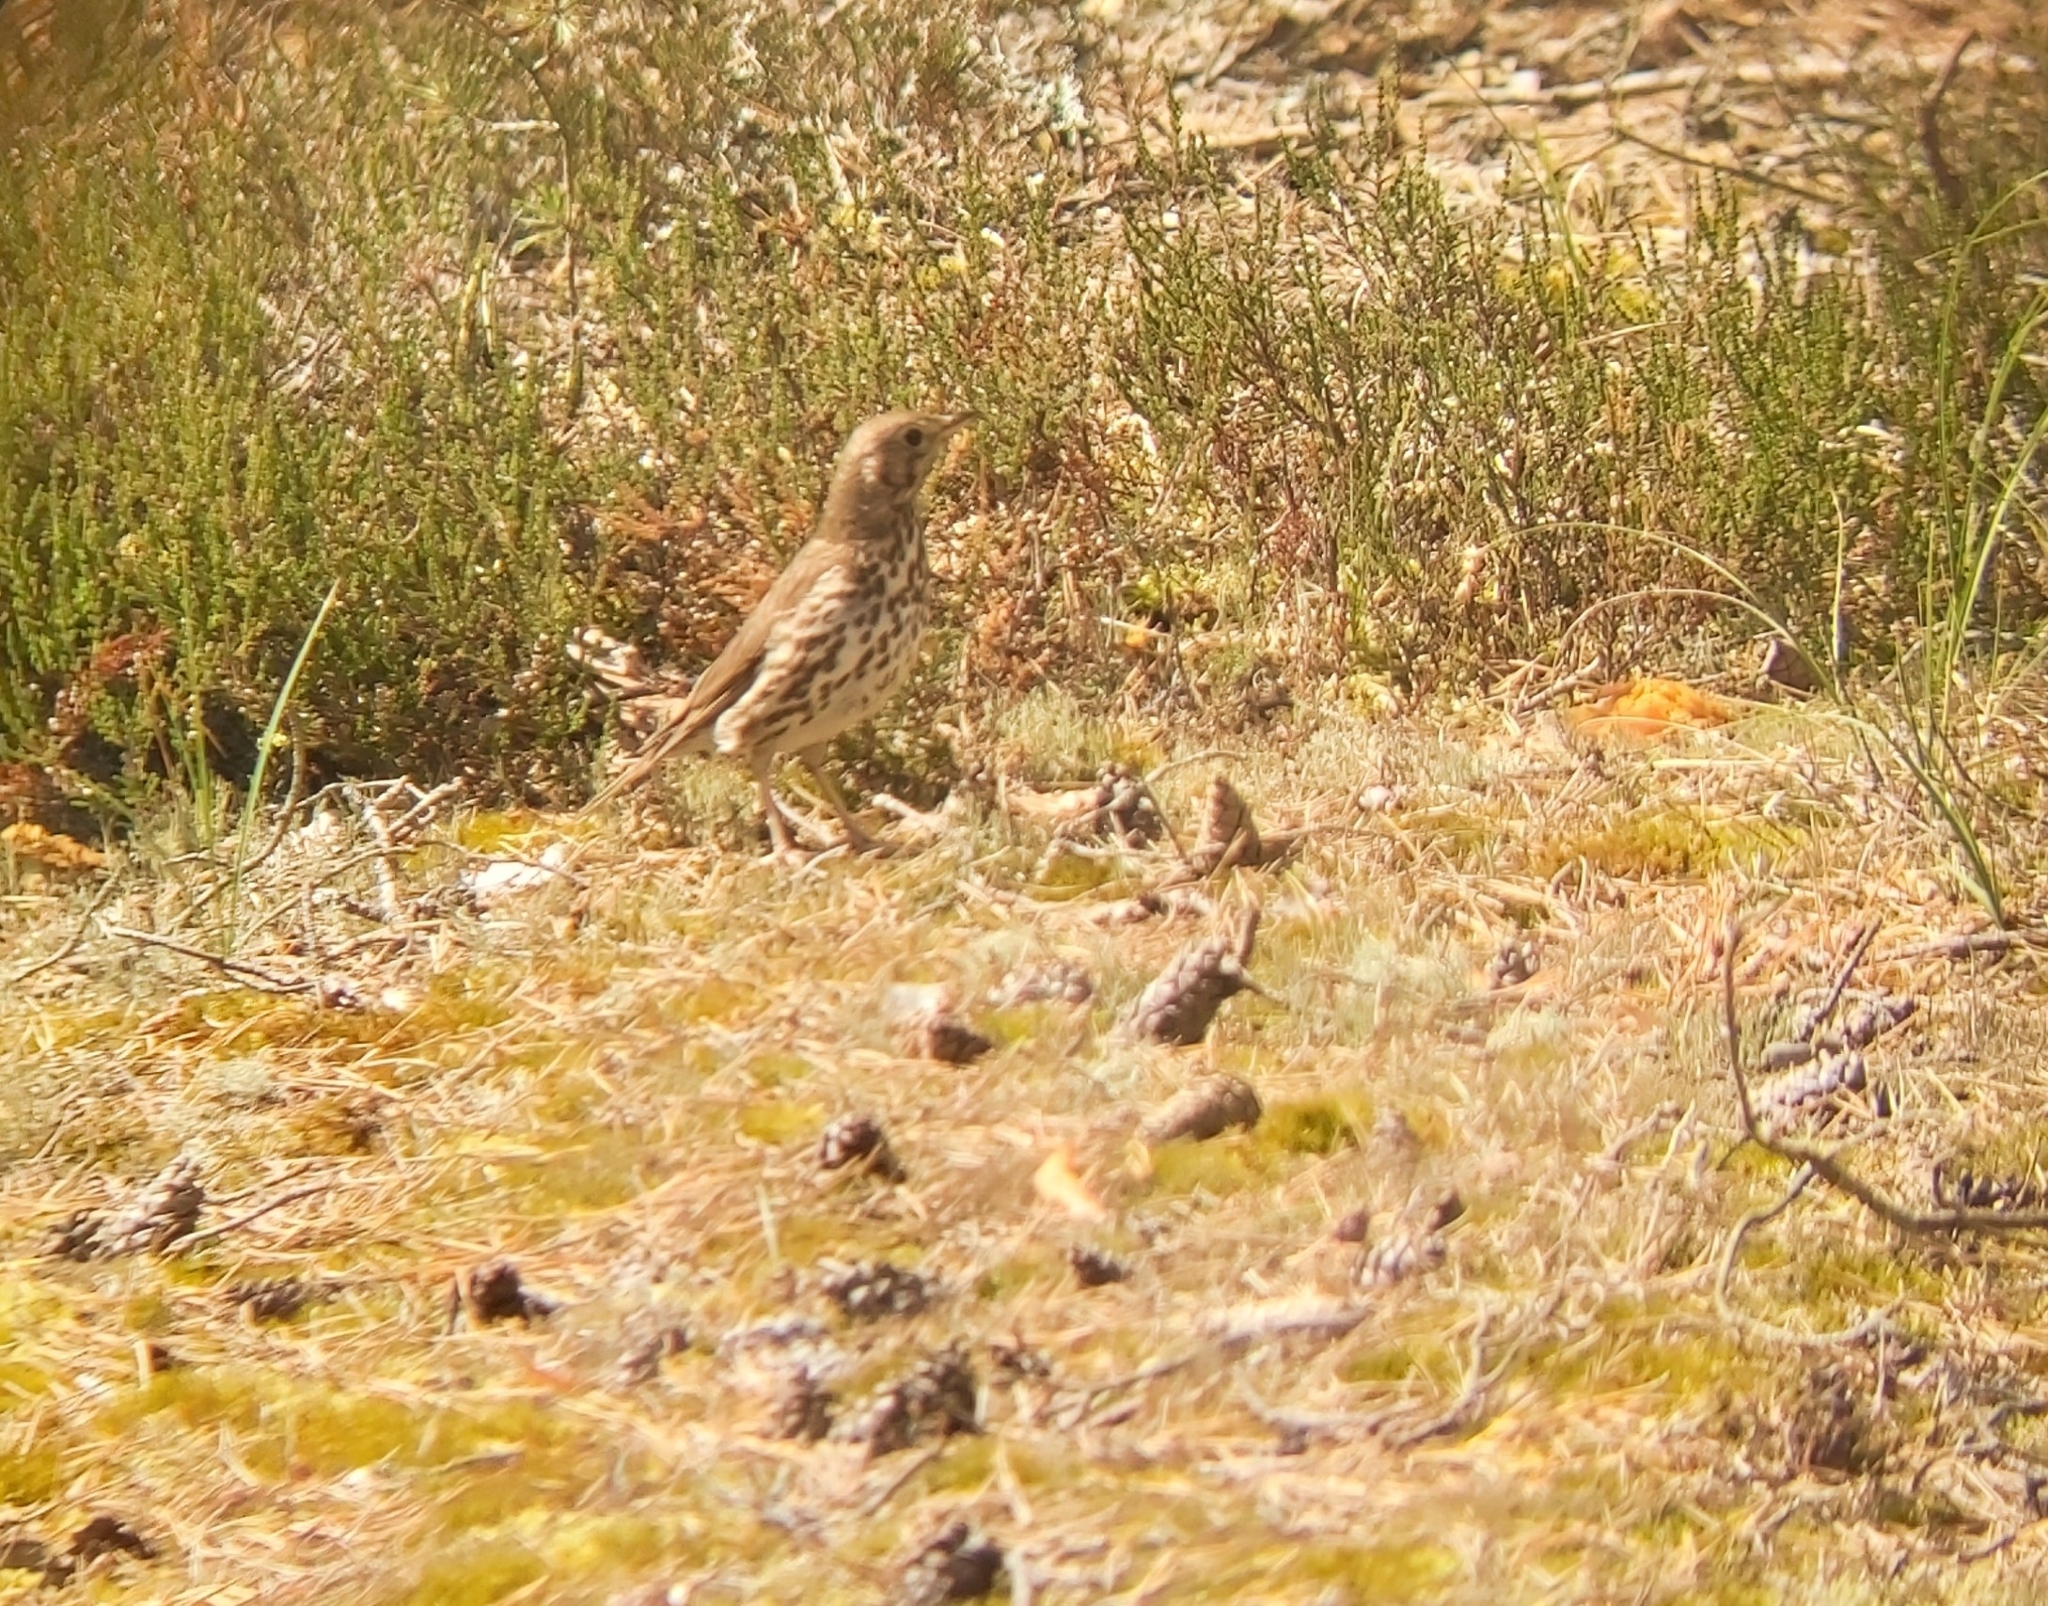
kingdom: Animalia
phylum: Chordata
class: Aves
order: Passeriformes
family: Turdidae
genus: Turdus
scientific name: Turdus philomelos
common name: Song thrush
